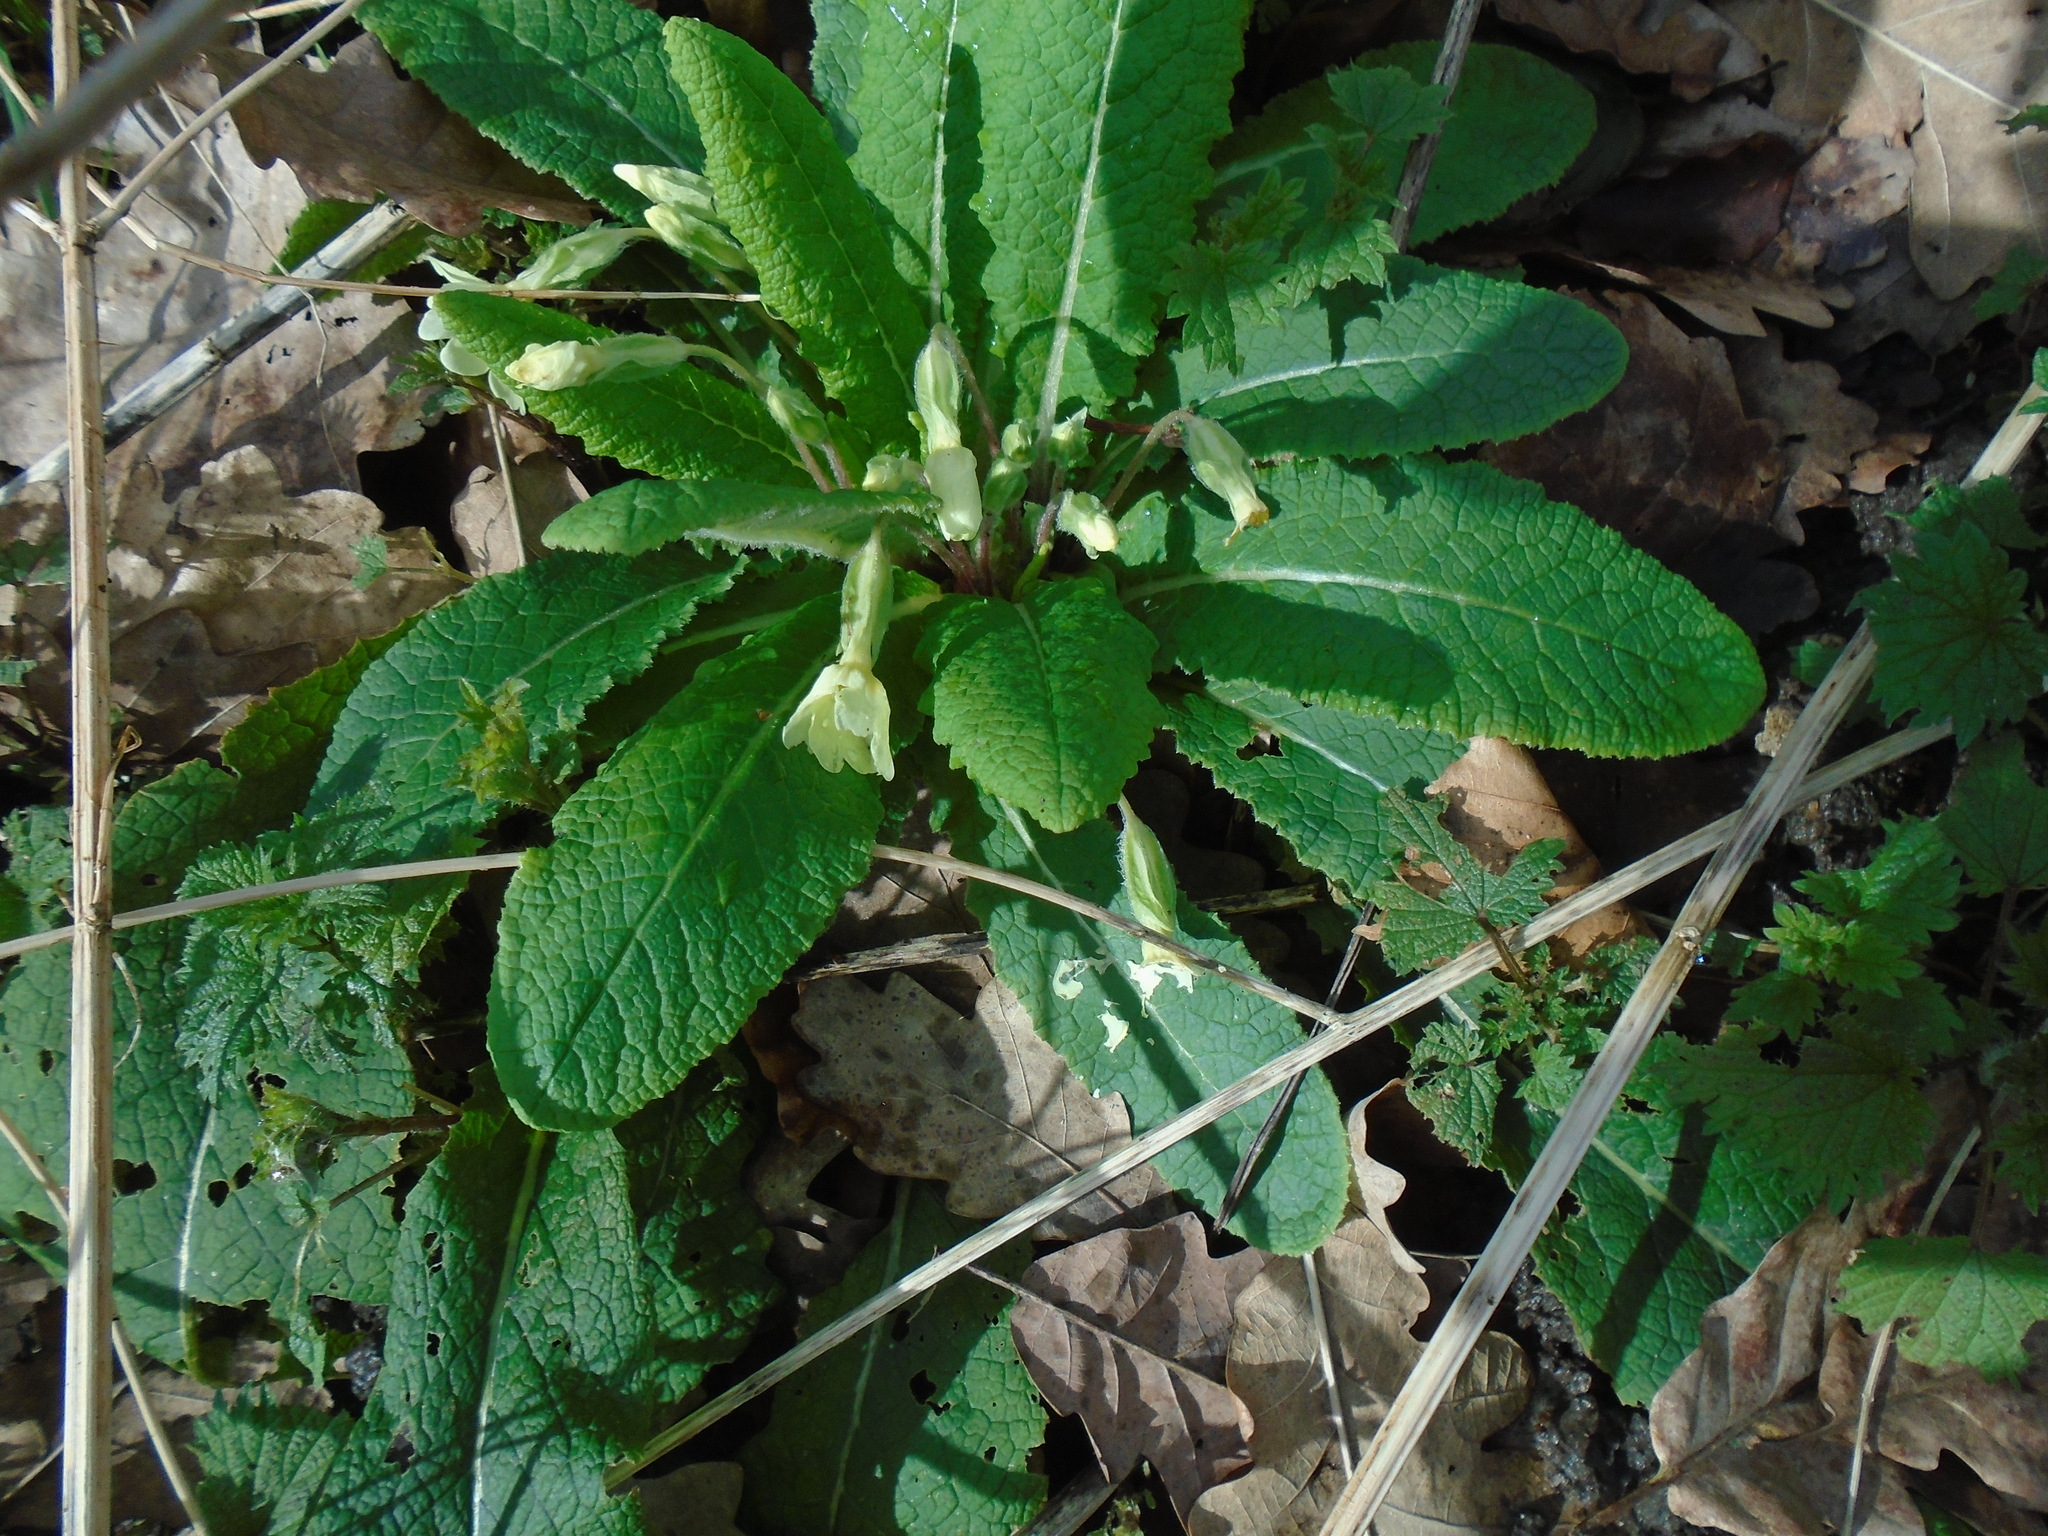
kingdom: Plantae
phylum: Tracheophyta
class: Magnoliopsida
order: Ericales
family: Primulaceae
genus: Primula
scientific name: Primula vulgaris
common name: Primrose
